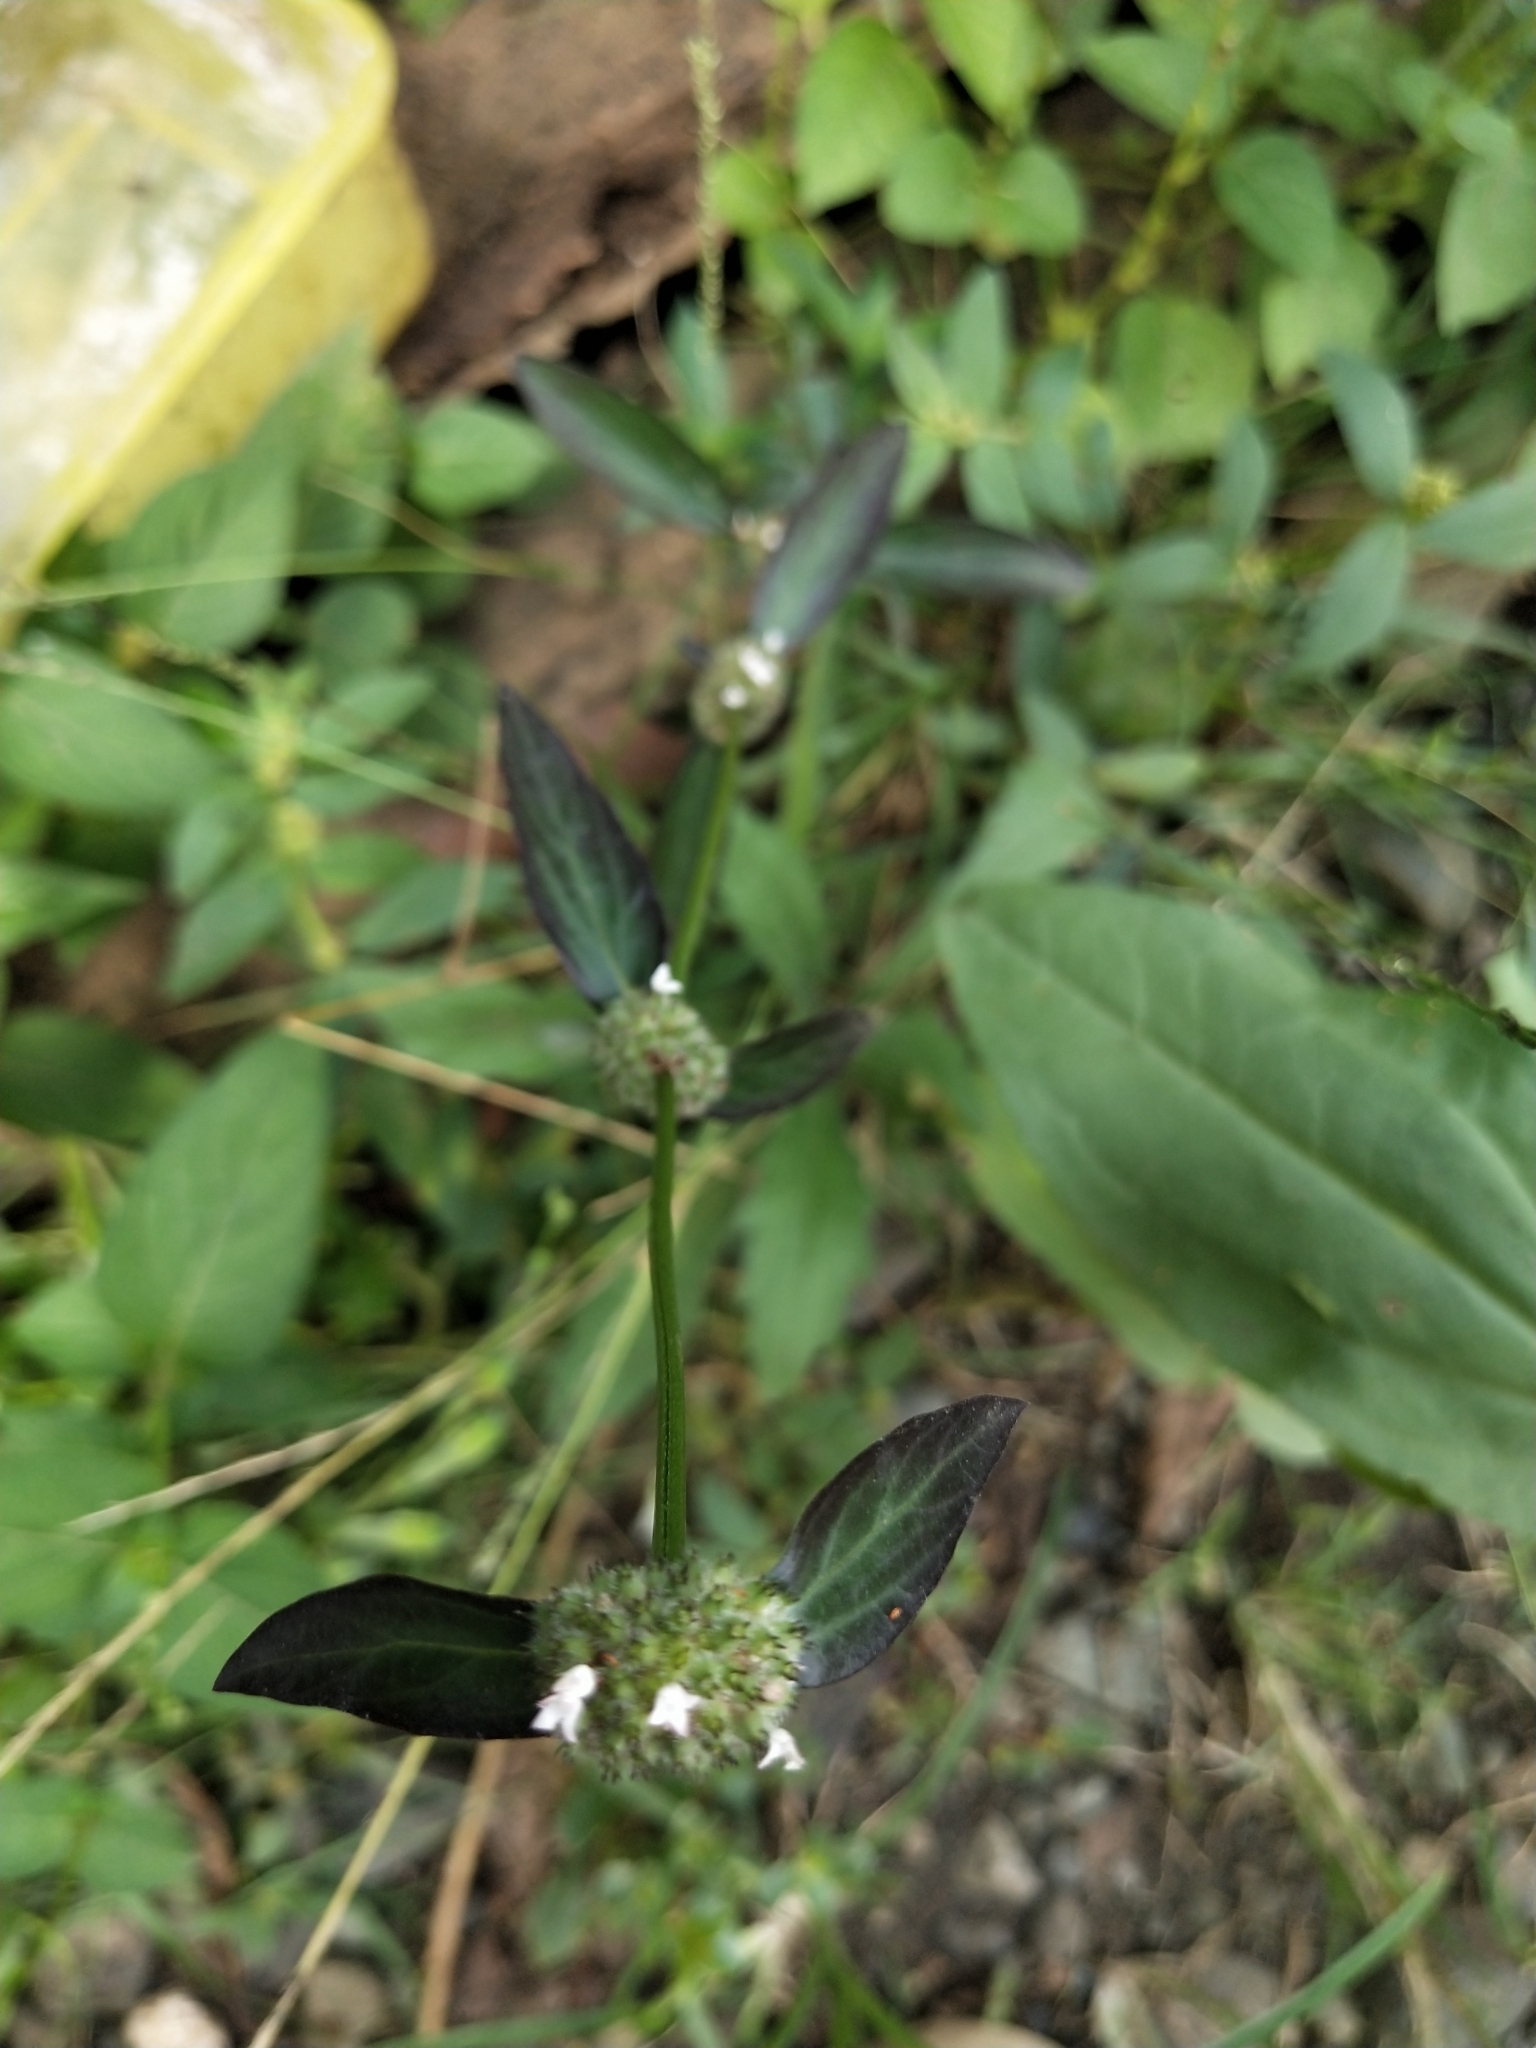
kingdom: Plantae
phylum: Tracheophyta
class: Magnoliopsida
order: Gentianales
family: Rubiaceae
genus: Spermacoce
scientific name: Spermacoce remota
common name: Woodland false buttonweed
